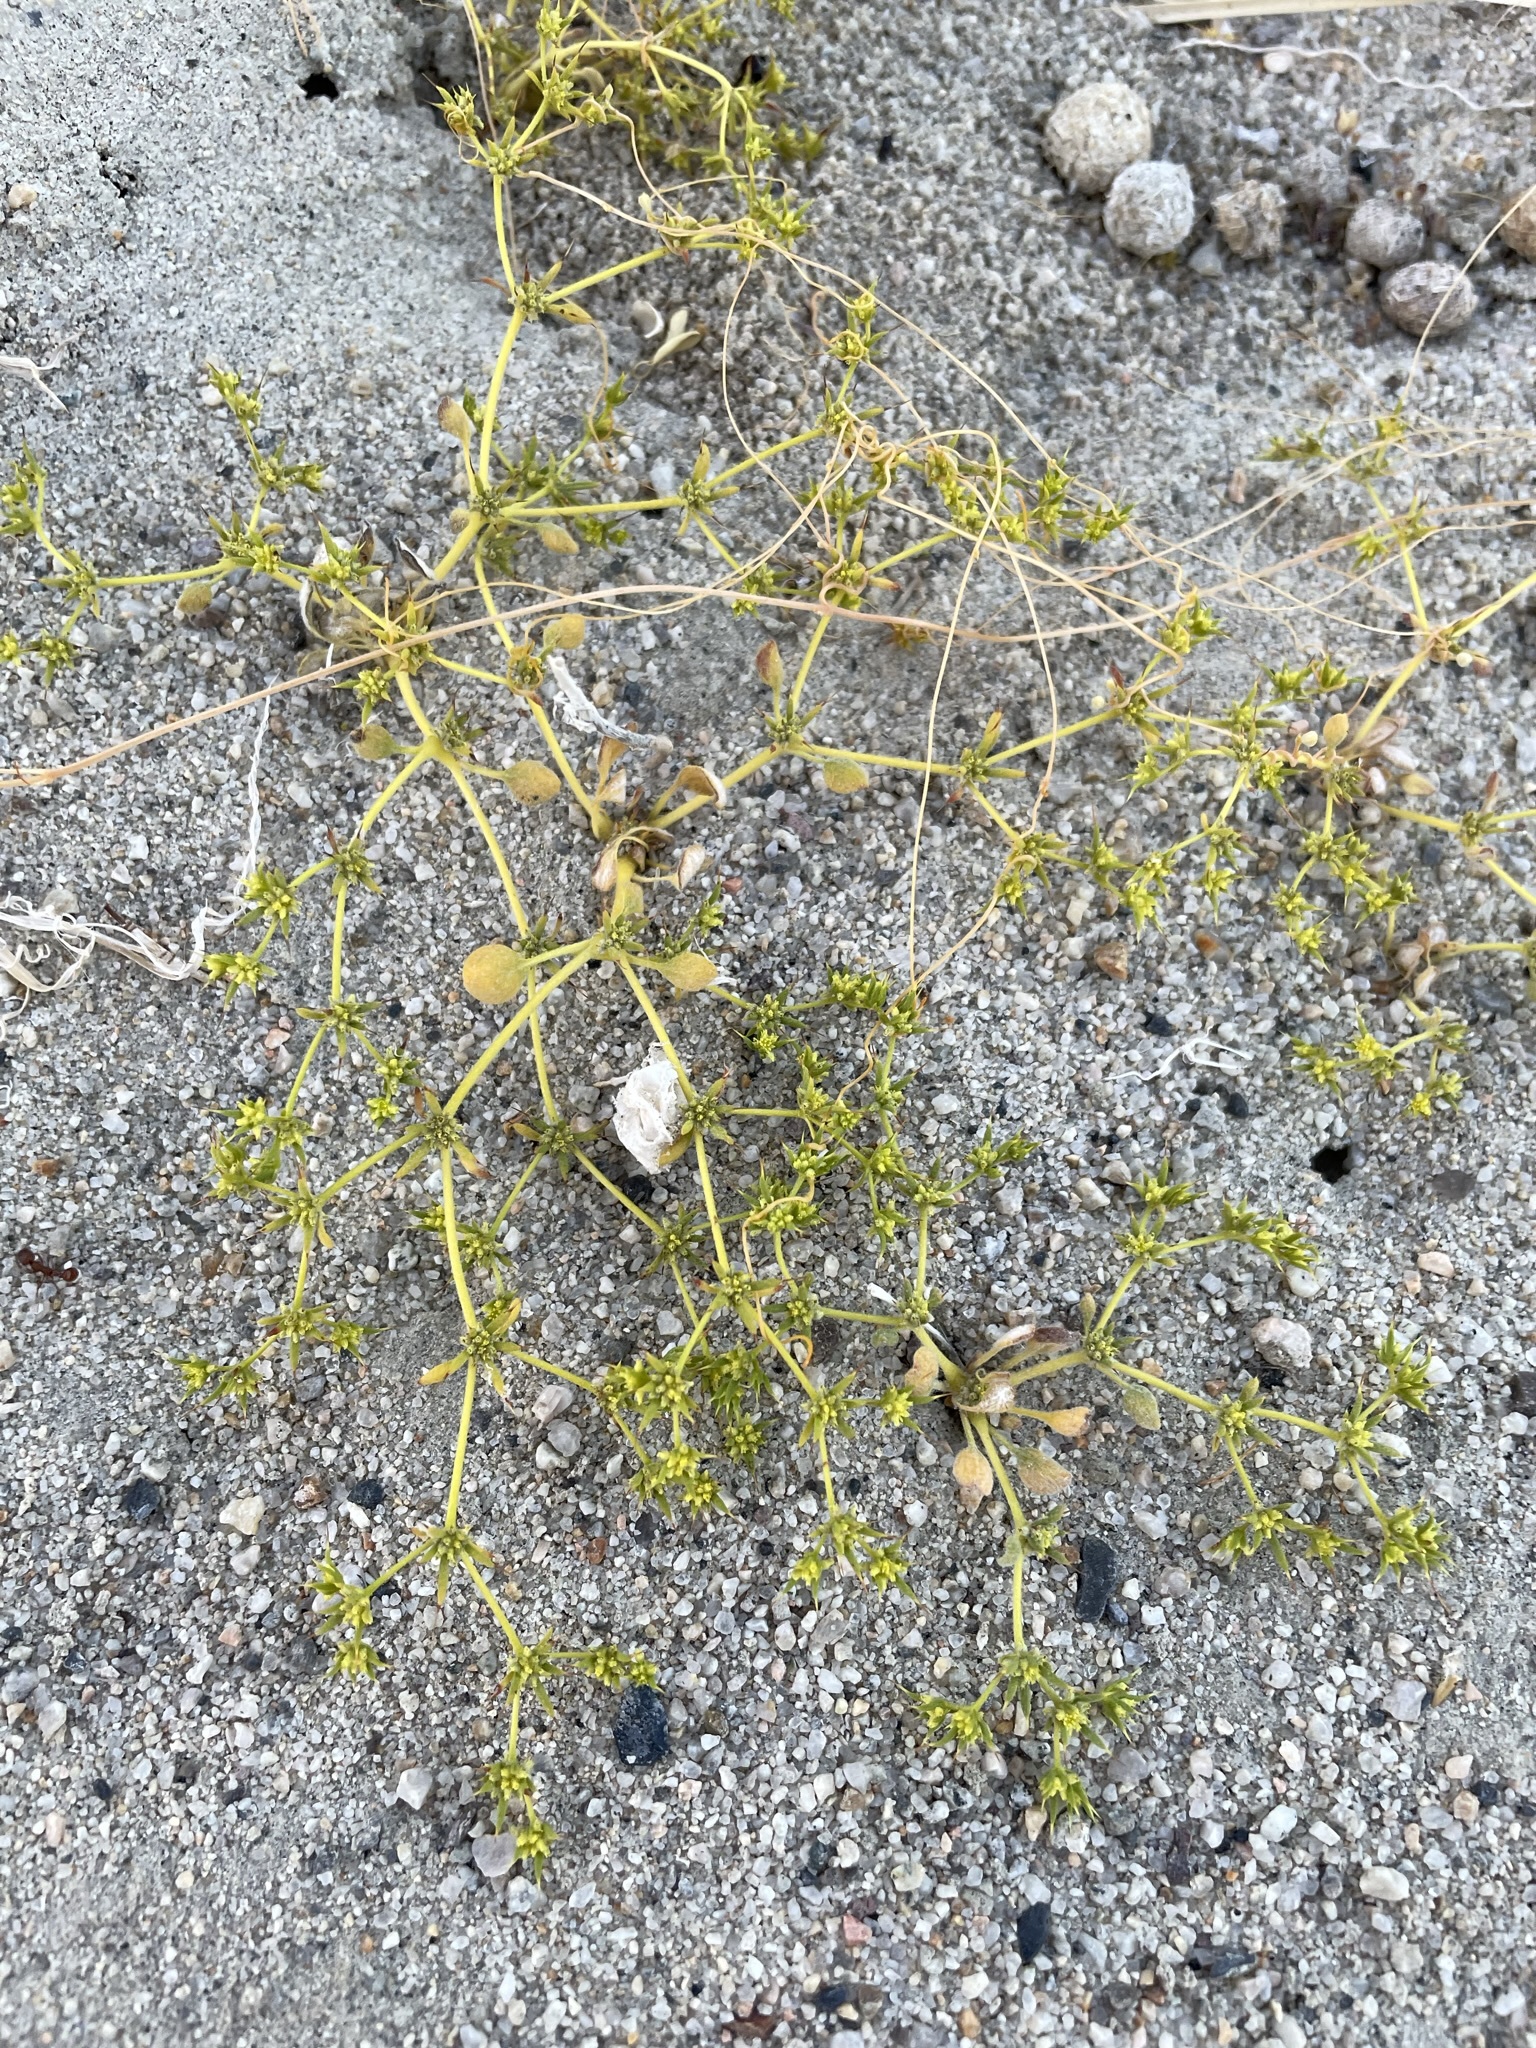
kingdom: Plantae
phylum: Tracheophyta
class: Magnoliopsida
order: Caryophyllales
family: Polygonaceae
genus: Goodmania
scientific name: Goodmania luteola
